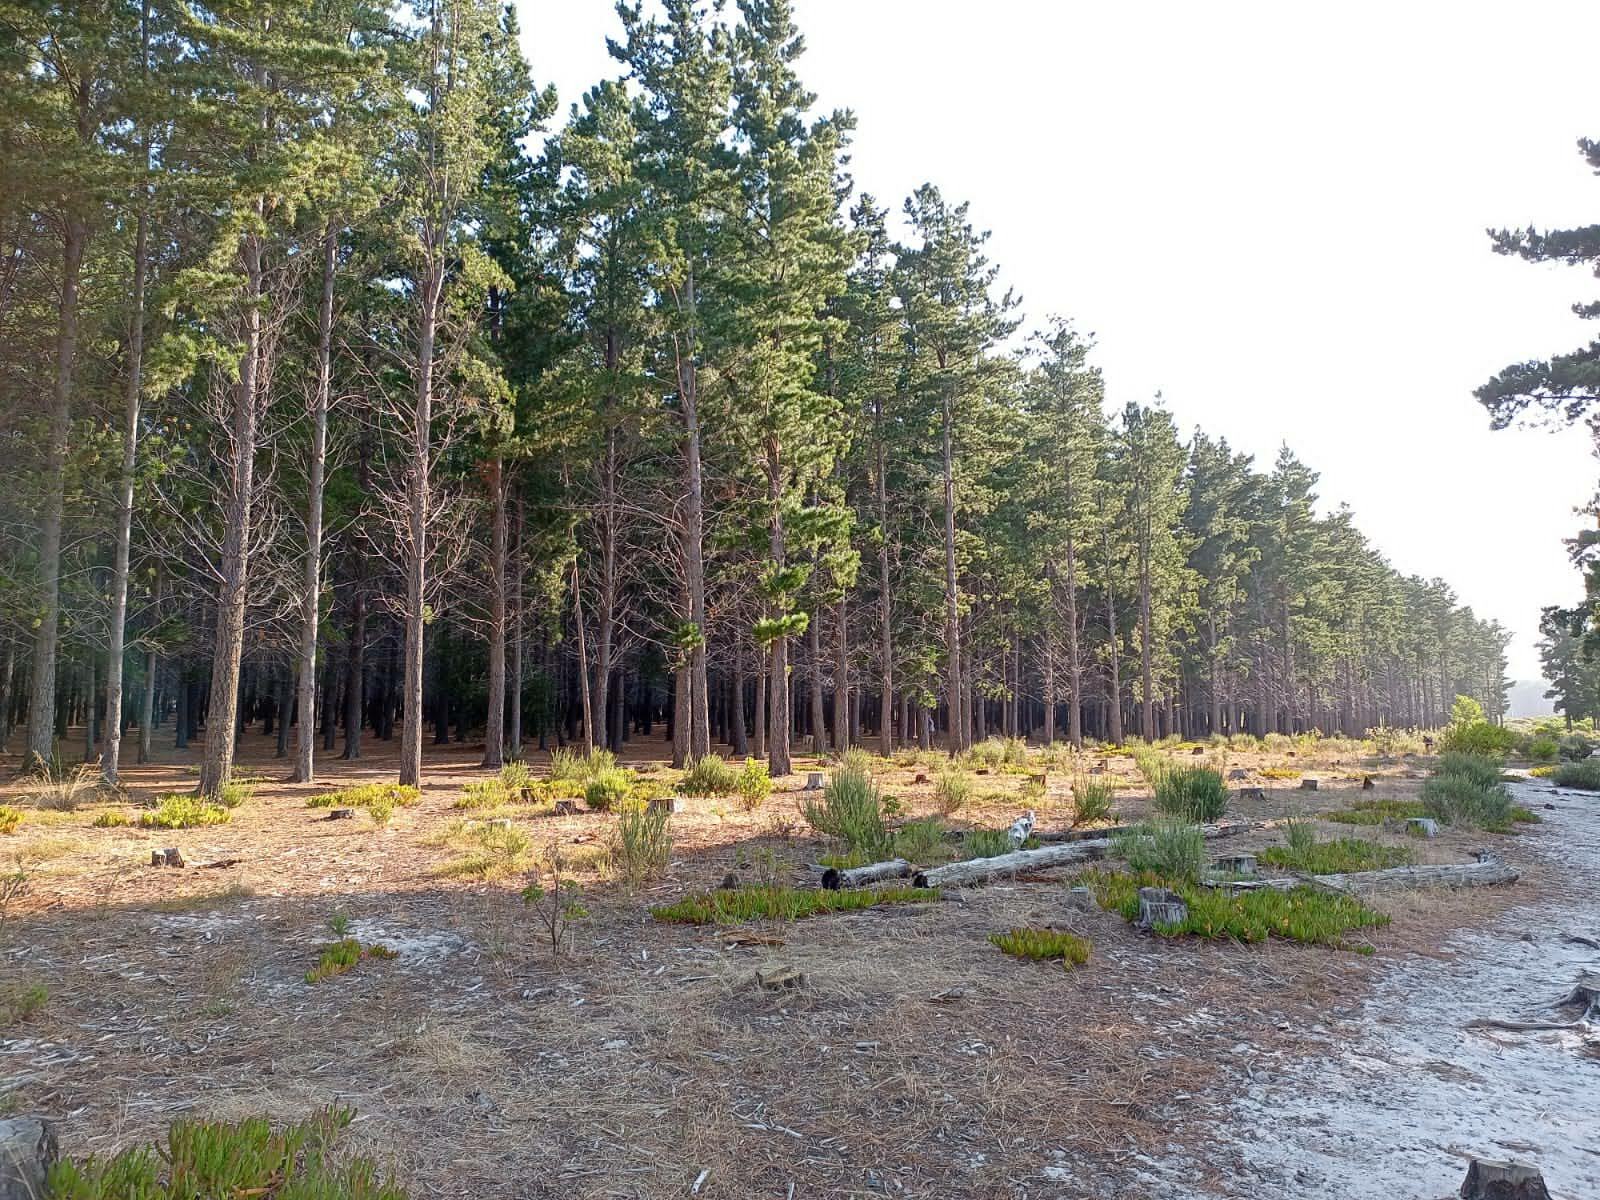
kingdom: Plantae
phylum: Tracheophyta
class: Magnoliopsida
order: Caryophyllales
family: Aizoaceae
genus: Carpobrotus
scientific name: Carpobrotus edulis
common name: Hottentot-fig
